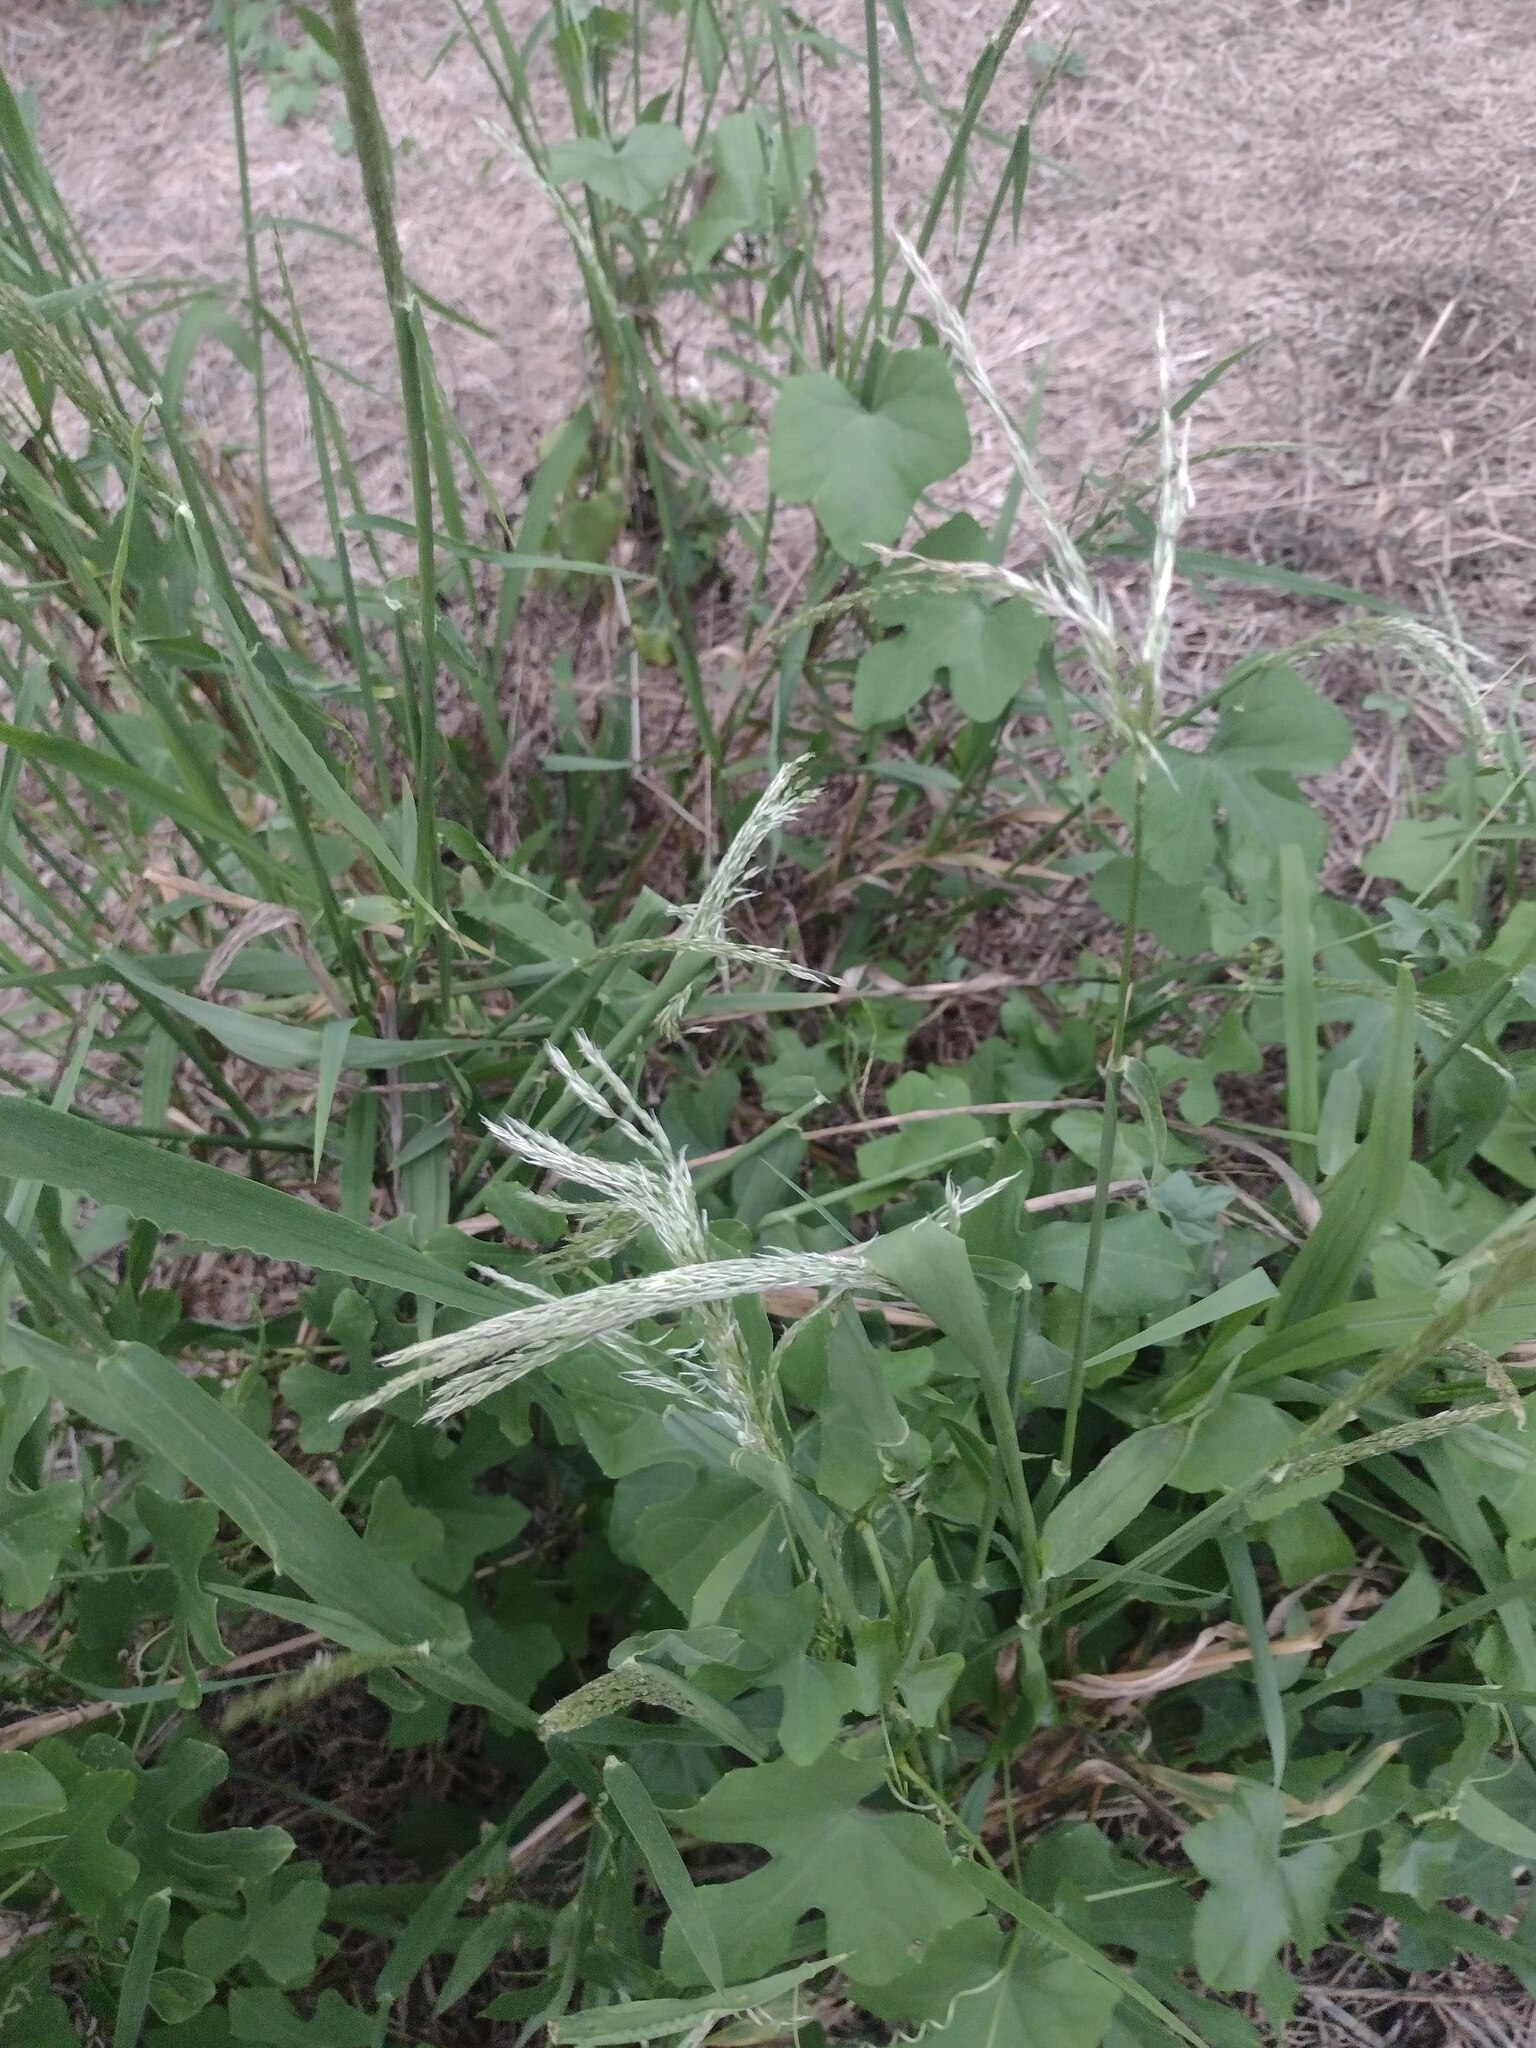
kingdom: Plantae
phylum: Tracheophyta
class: Liliopsida
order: Poales
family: Poaceae
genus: Digitaria
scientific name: Digitaria insularis
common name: Sourgrass
